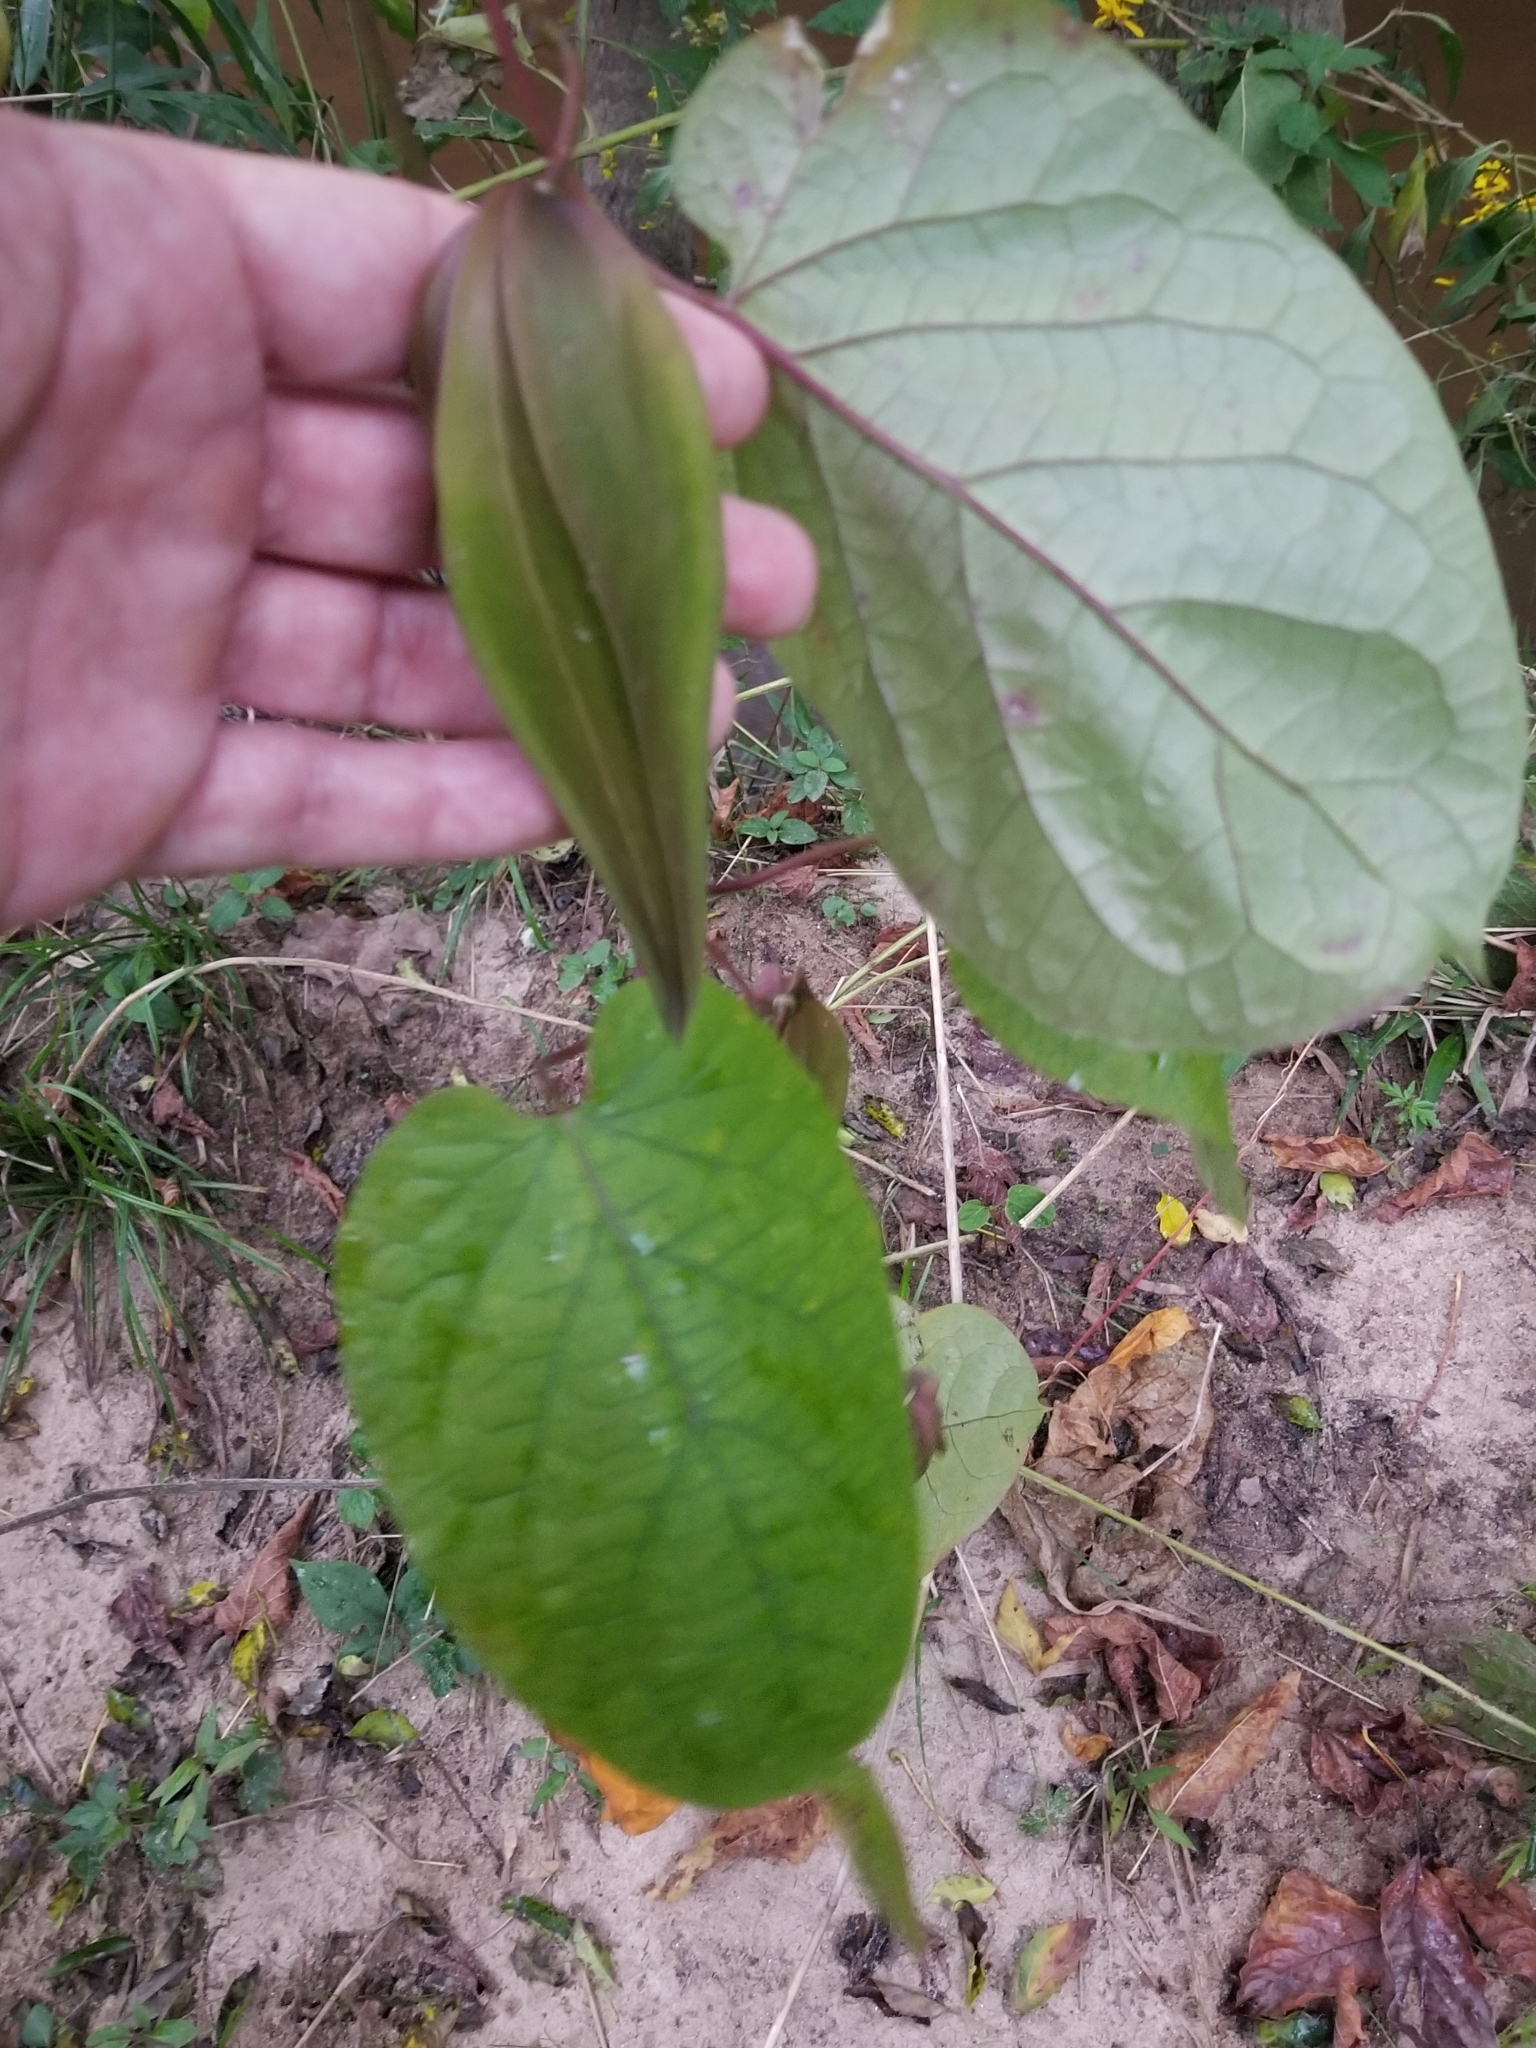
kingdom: Plantae
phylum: Tracheophyta
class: Magnoliopsida
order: Gentianales
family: Apocynaceae
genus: Gonolobus
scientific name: Gonolobus suberosus
